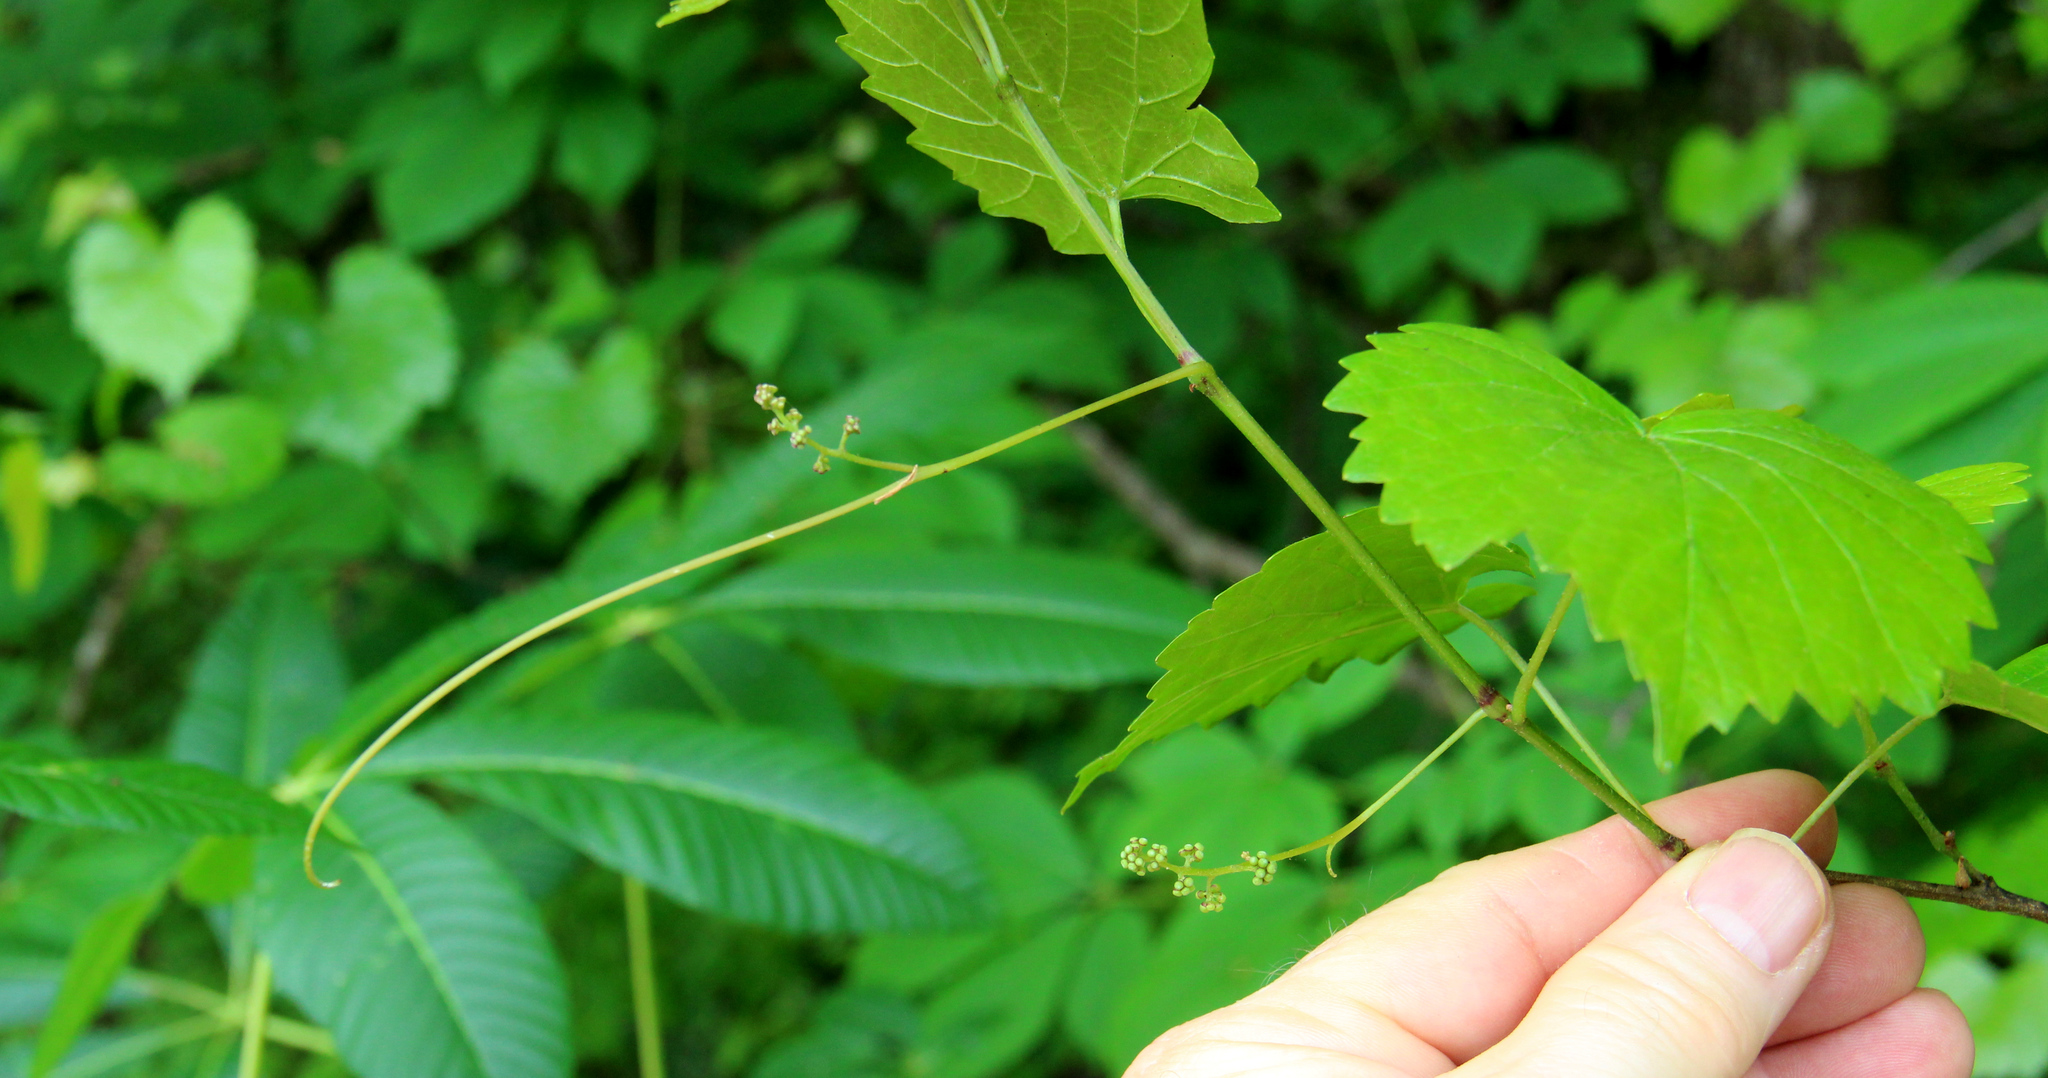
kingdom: Plantae
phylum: Tracheophyta
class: Magnoliopsida
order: Vitales
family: Vitaceae
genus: Vitis
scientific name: Vitis rotundifolia
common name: Muscadine grape
